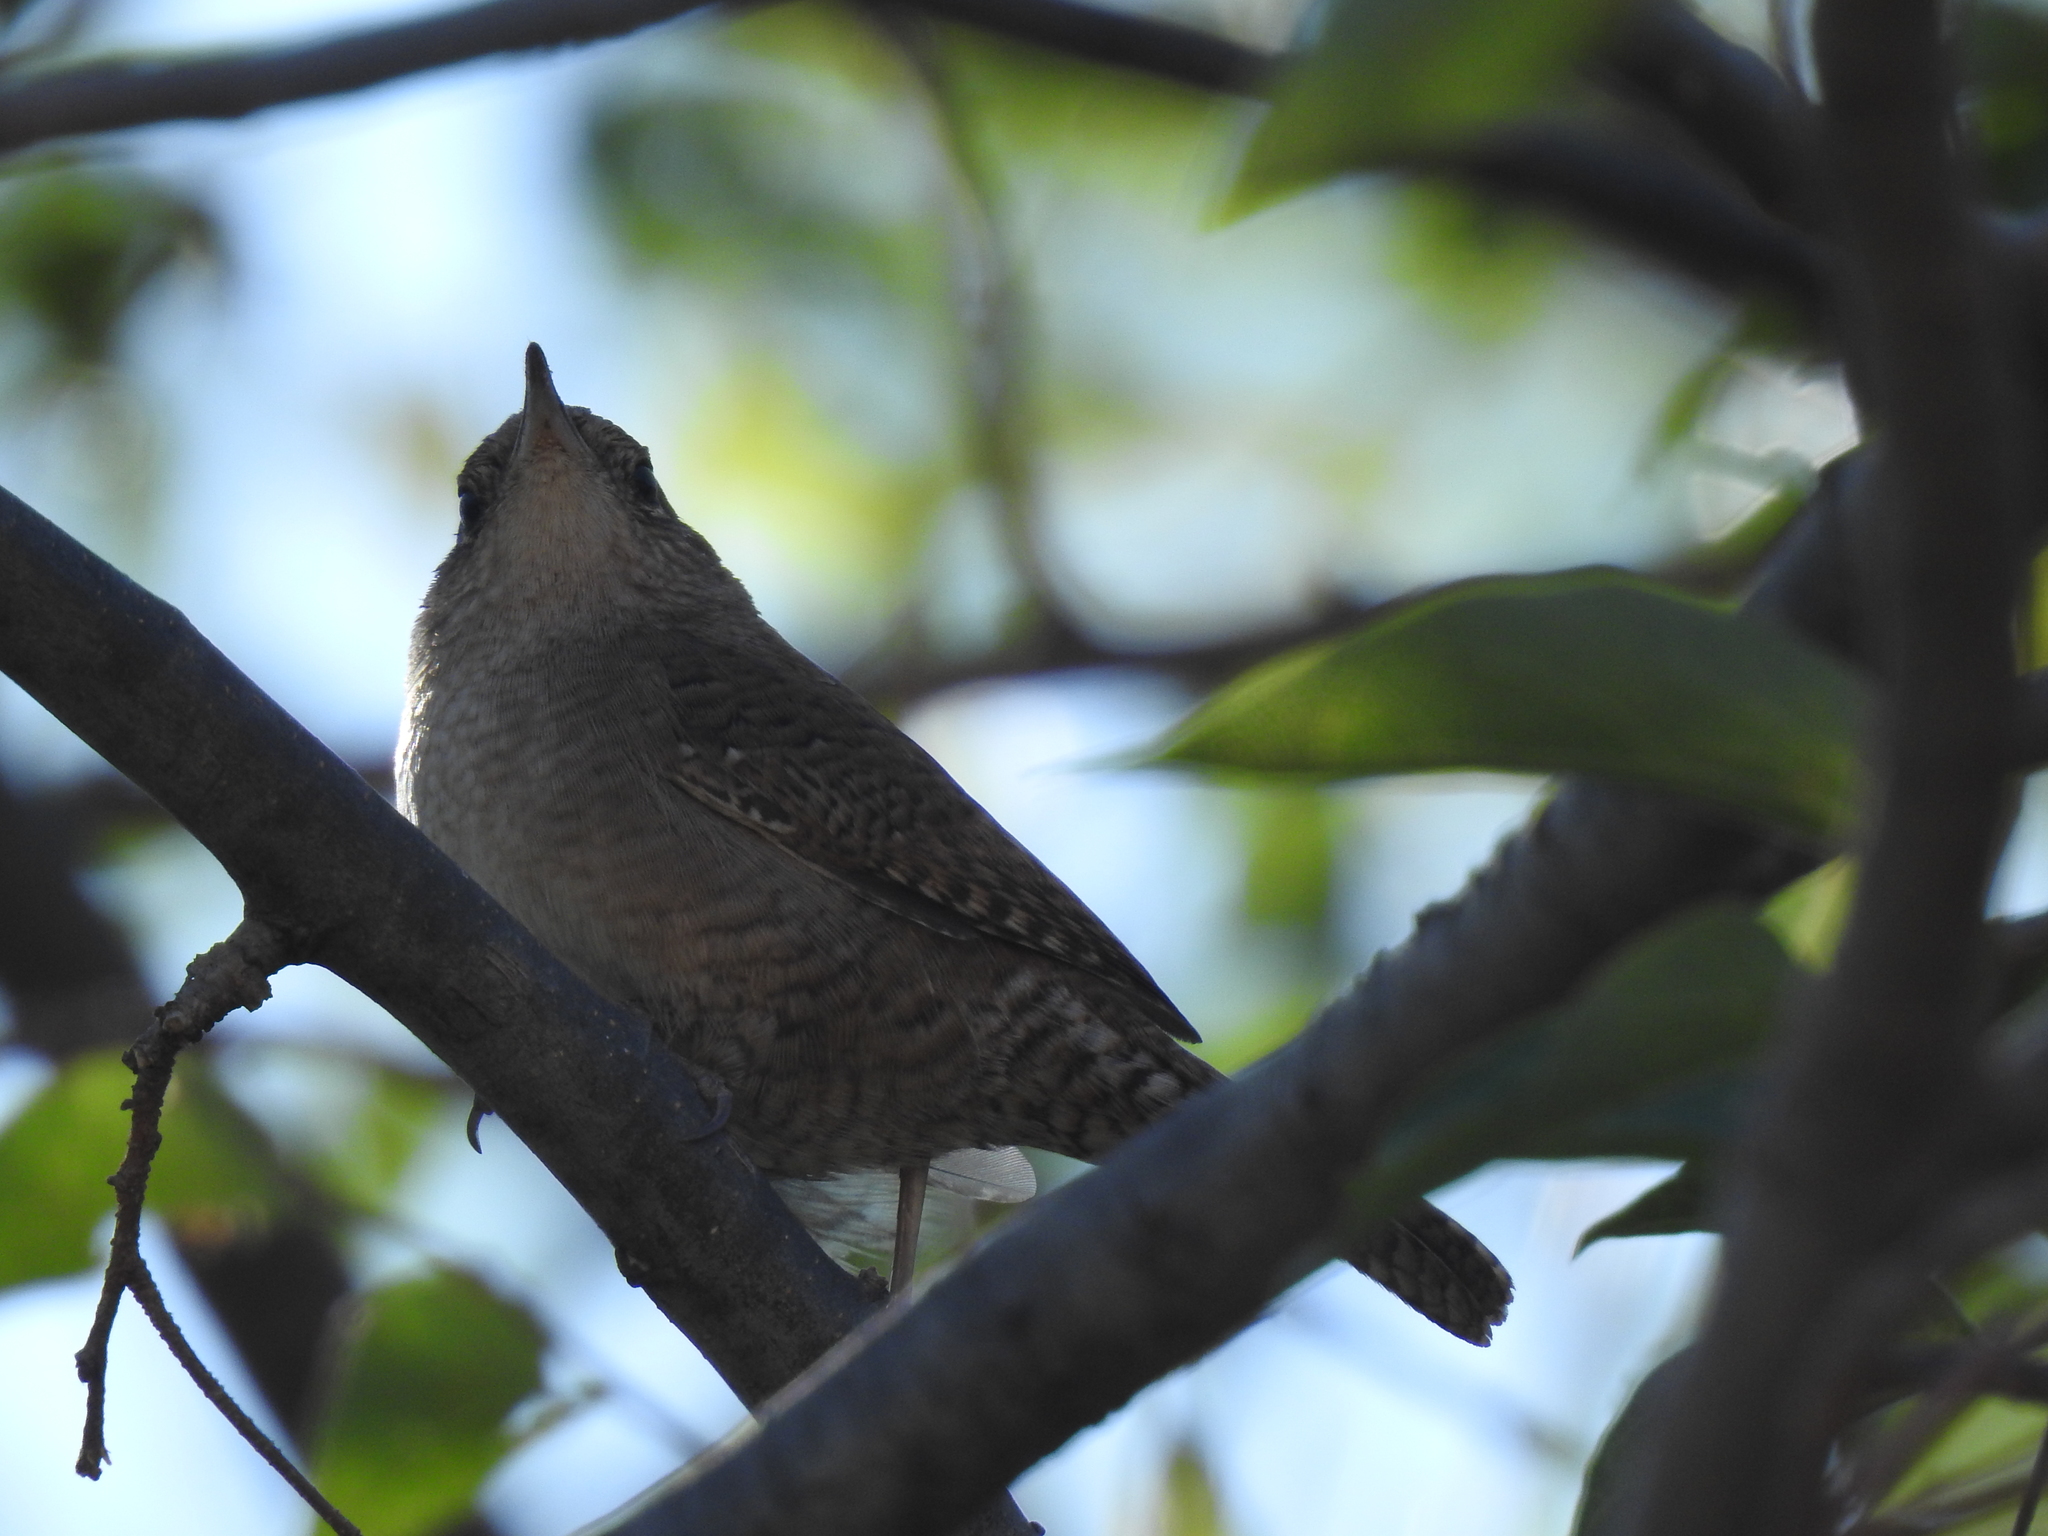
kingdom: Animalia
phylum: Chordata
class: Aves
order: Passeriformes
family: Troglodytidae
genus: Troglodytes
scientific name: Troglodytes aedon
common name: House wren
